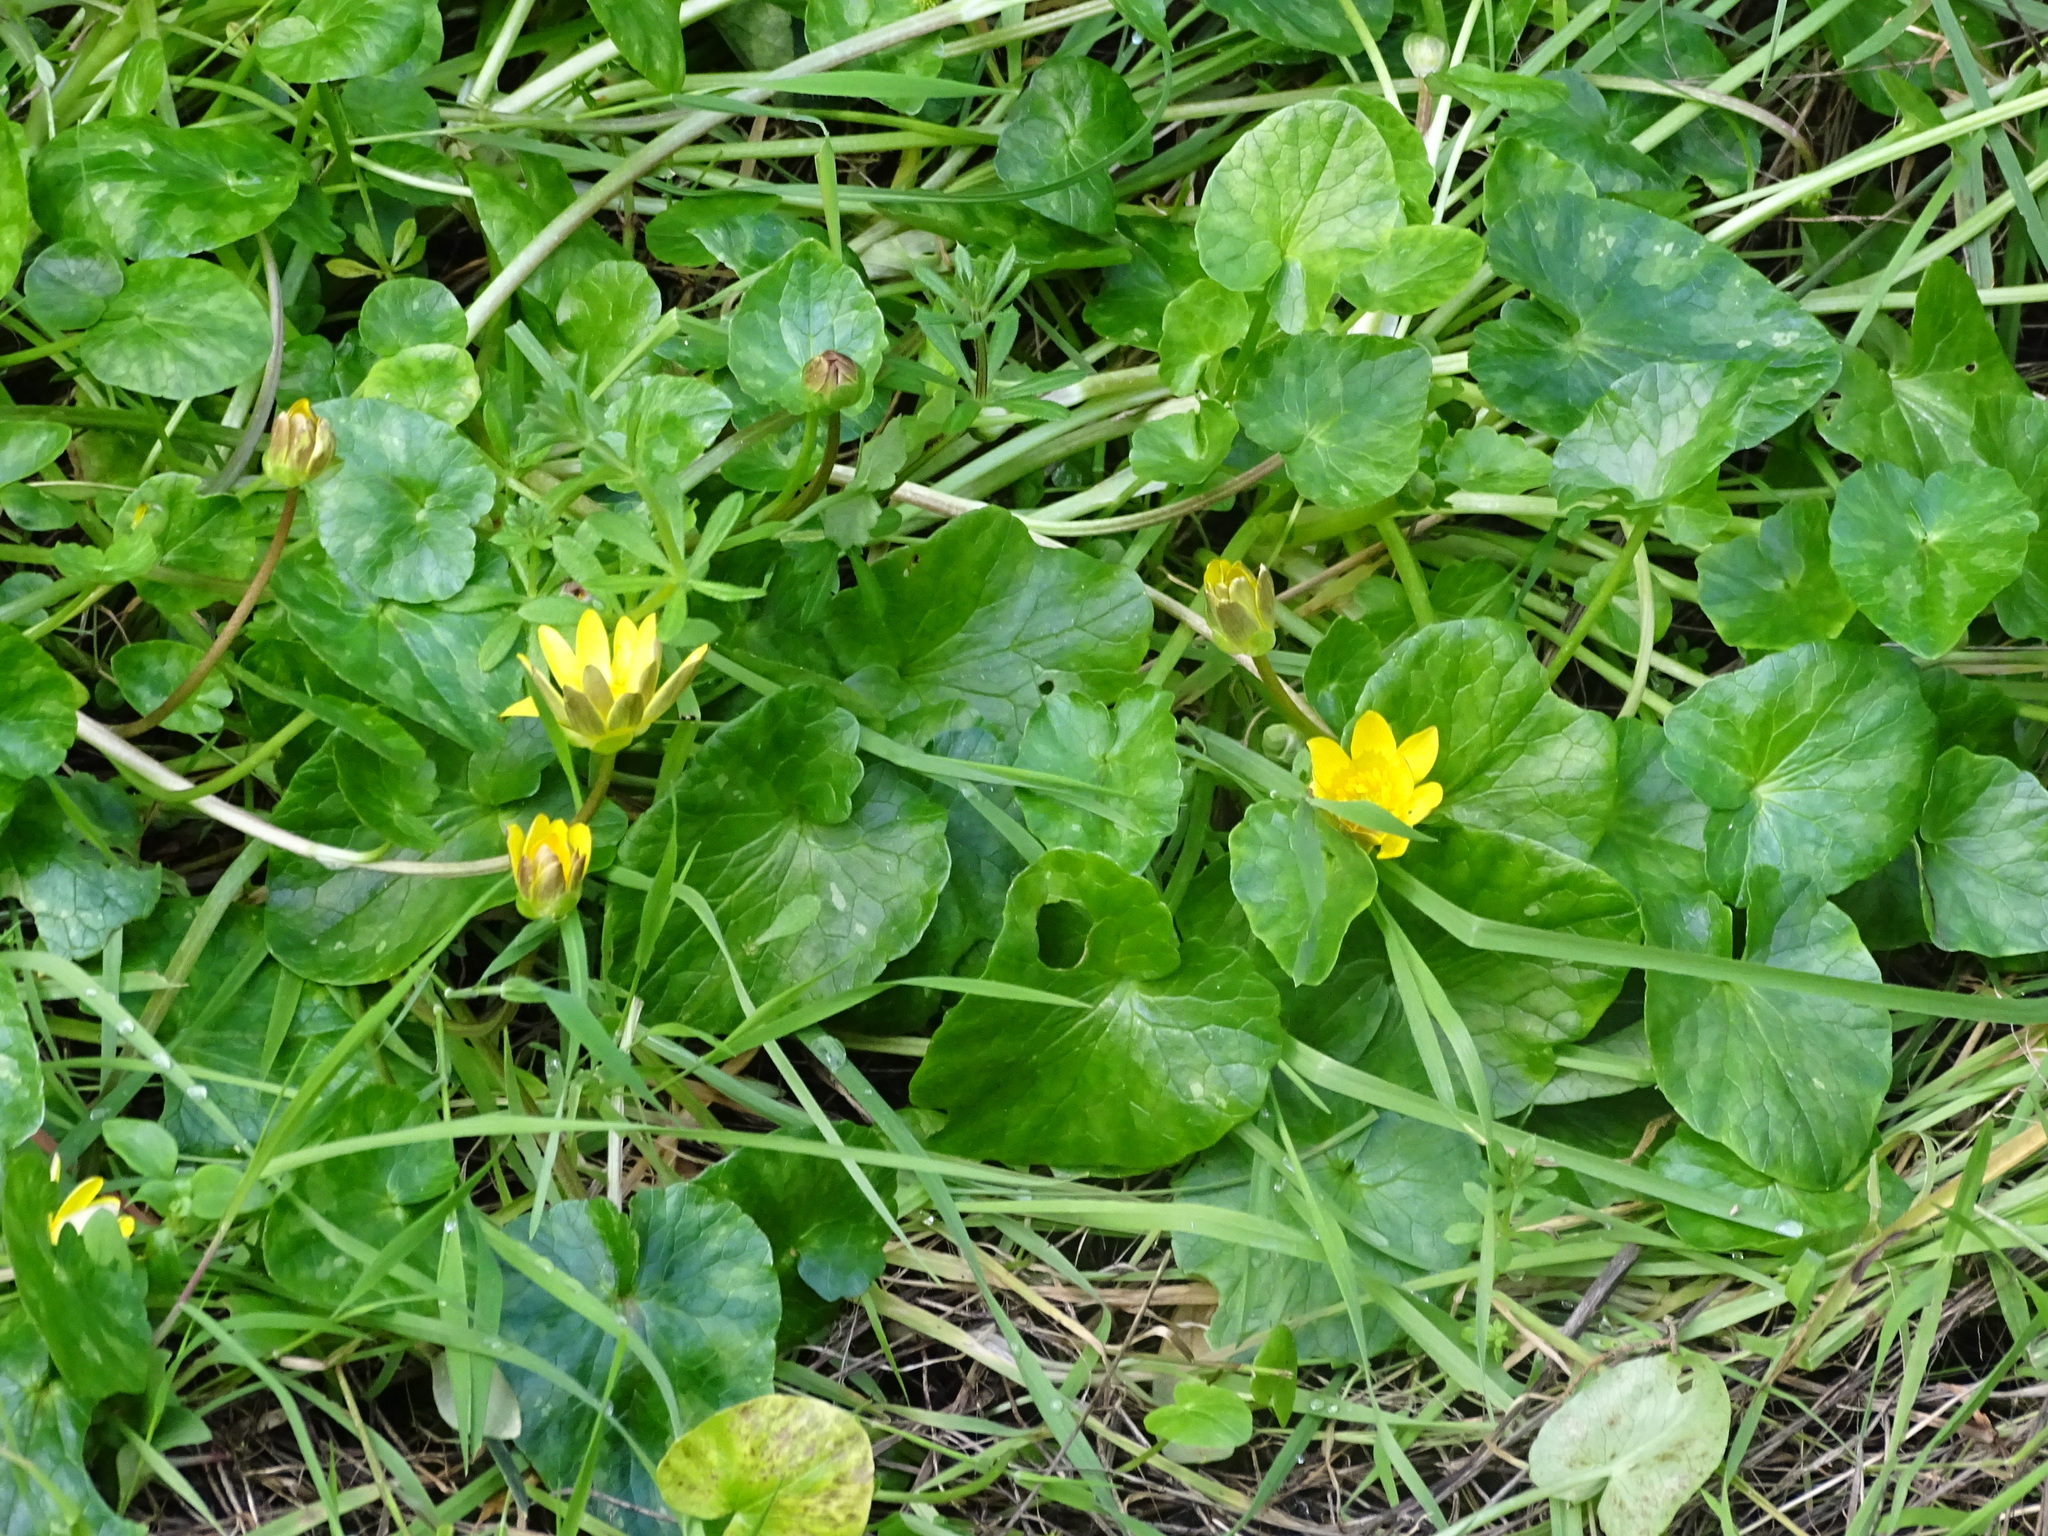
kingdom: Plantae
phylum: Tracheophyta
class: Magnoliopsida
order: Ranunculales
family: Ranunculaceae
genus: Ficaria
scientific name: Ficaria verna
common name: Lesser celandine
